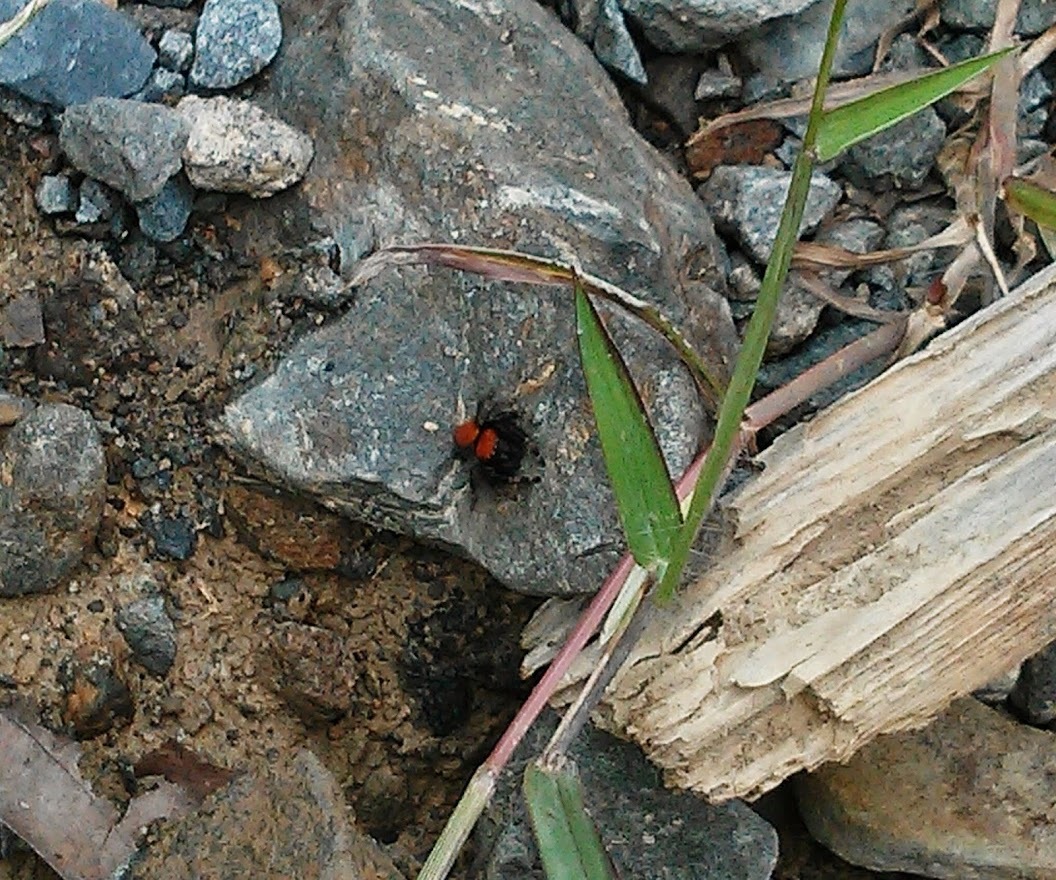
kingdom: Animalia
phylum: Arthropoda
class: Arachnida
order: Araneae
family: Salticidae
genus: Phidippus
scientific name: Phidippus cardinalis
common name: Cardinal jumper
